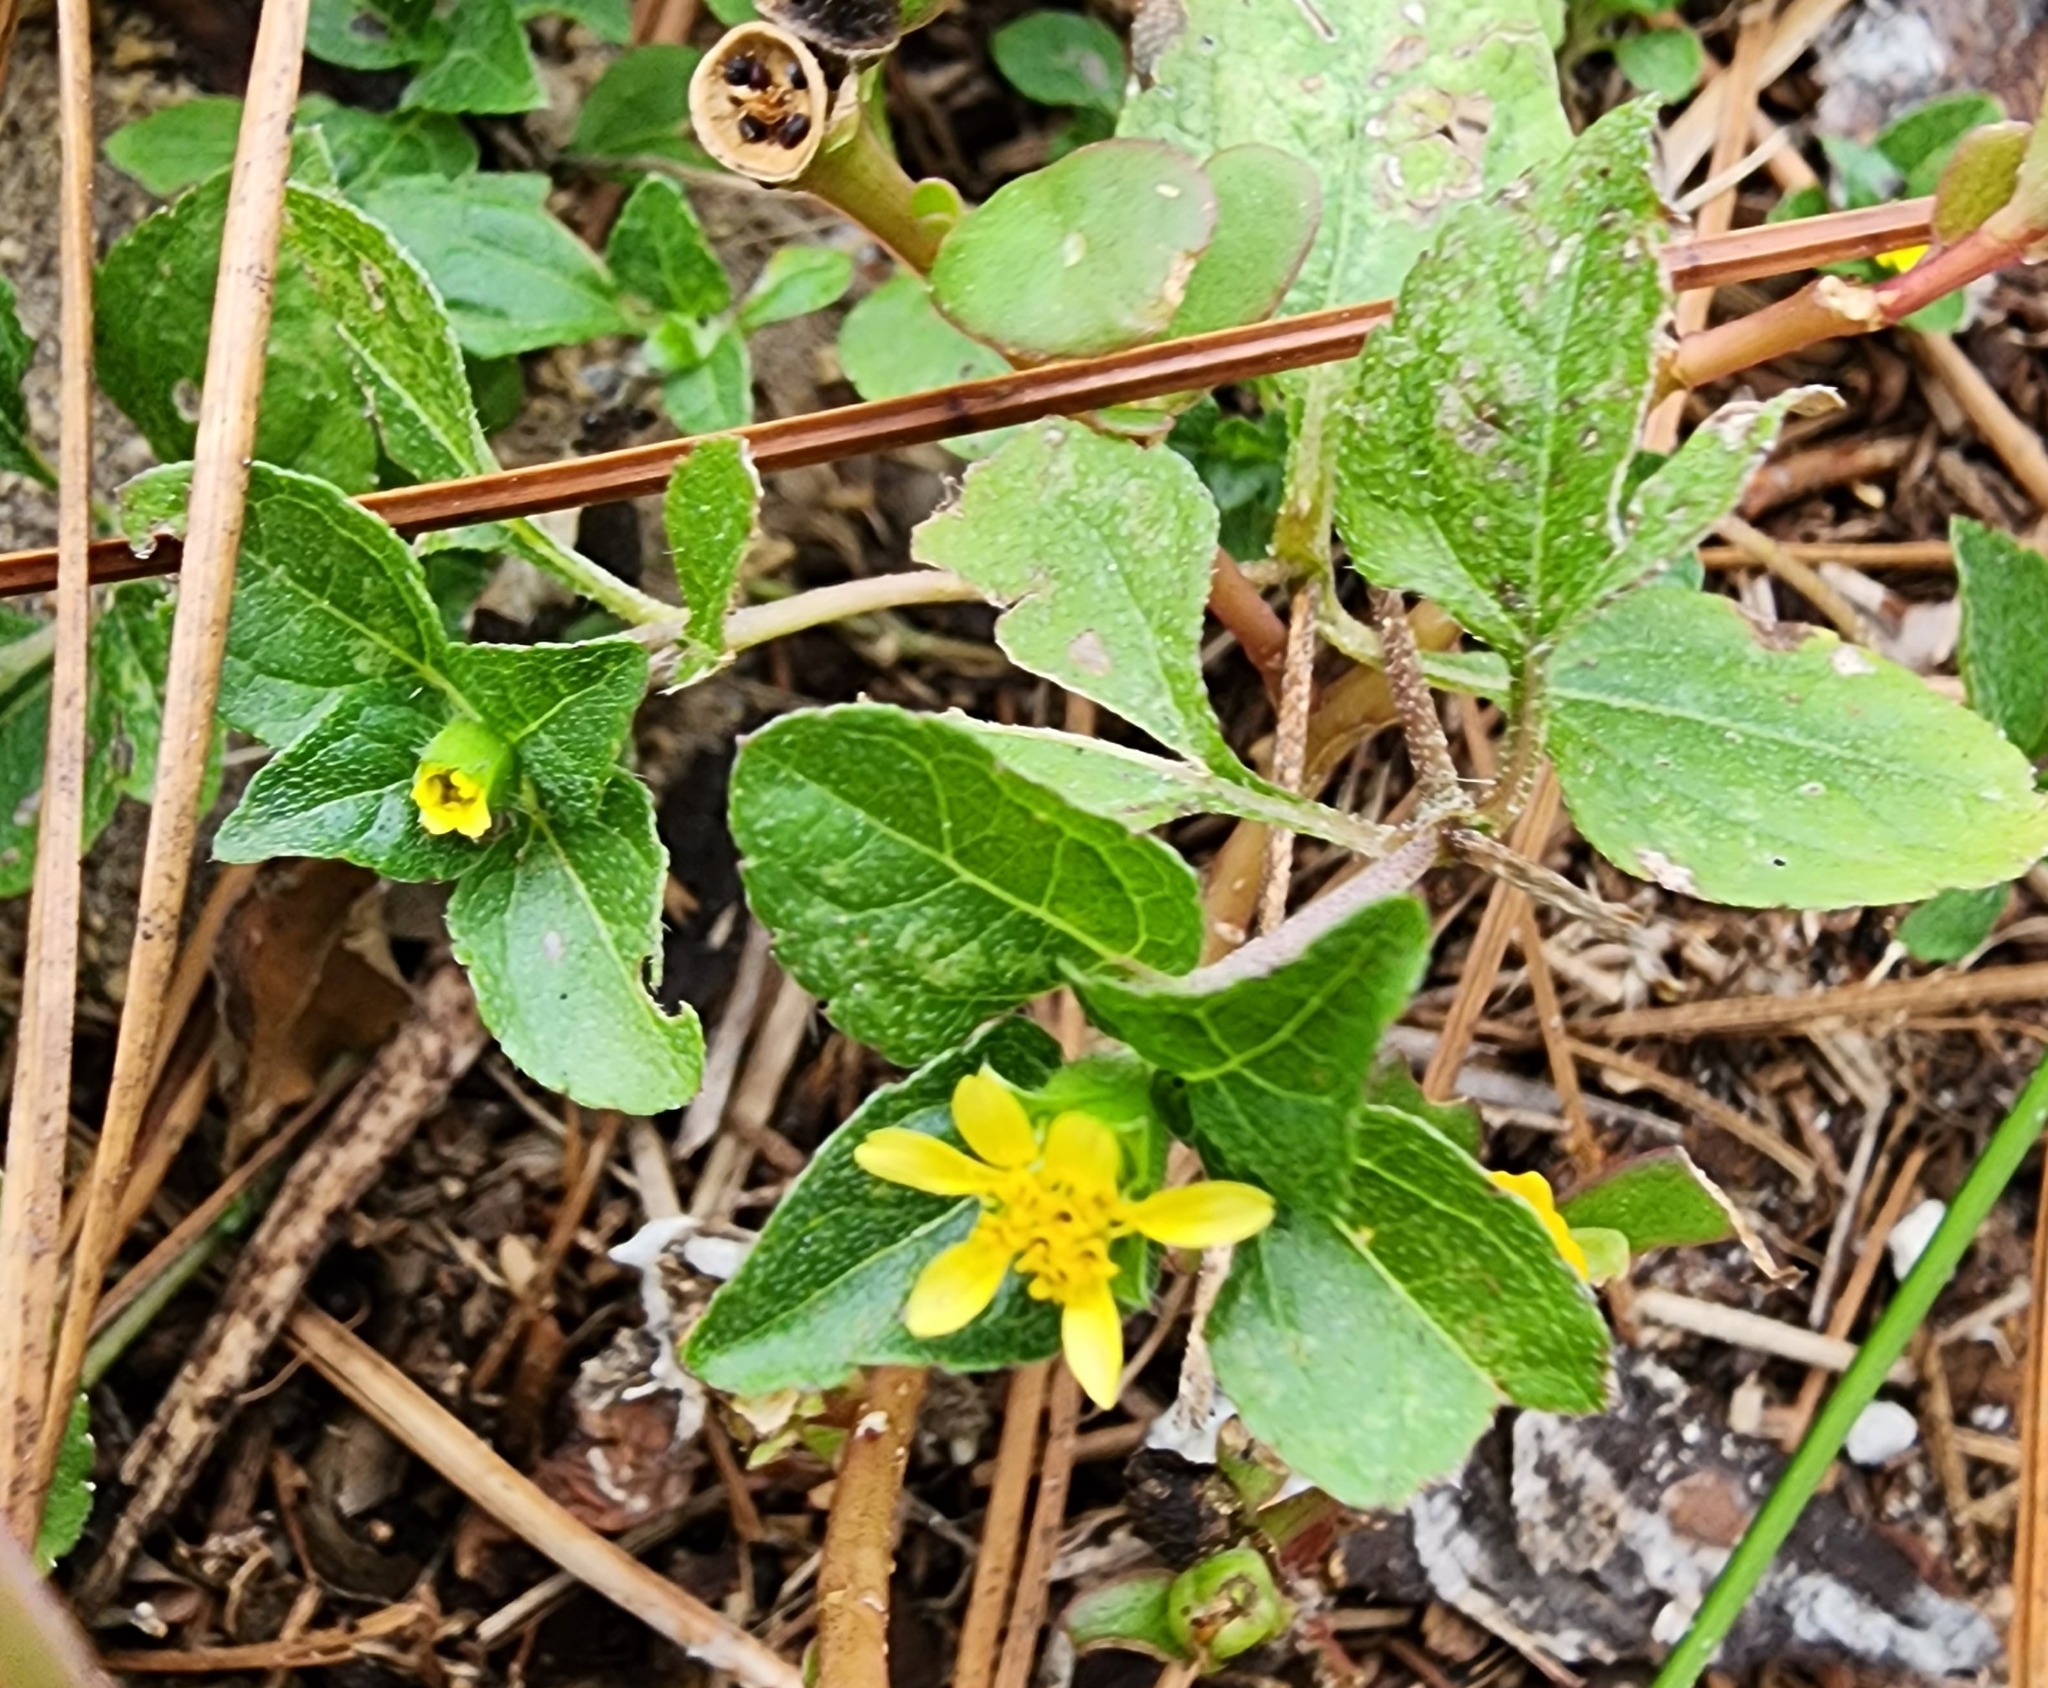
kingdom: Plantae
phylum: Tracheophyta
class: Magnoliopsida
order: Asterales
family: Asteraceae
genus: Calyptocarpus
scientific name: Calyptocarpus vialis
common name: Straggler daisy
